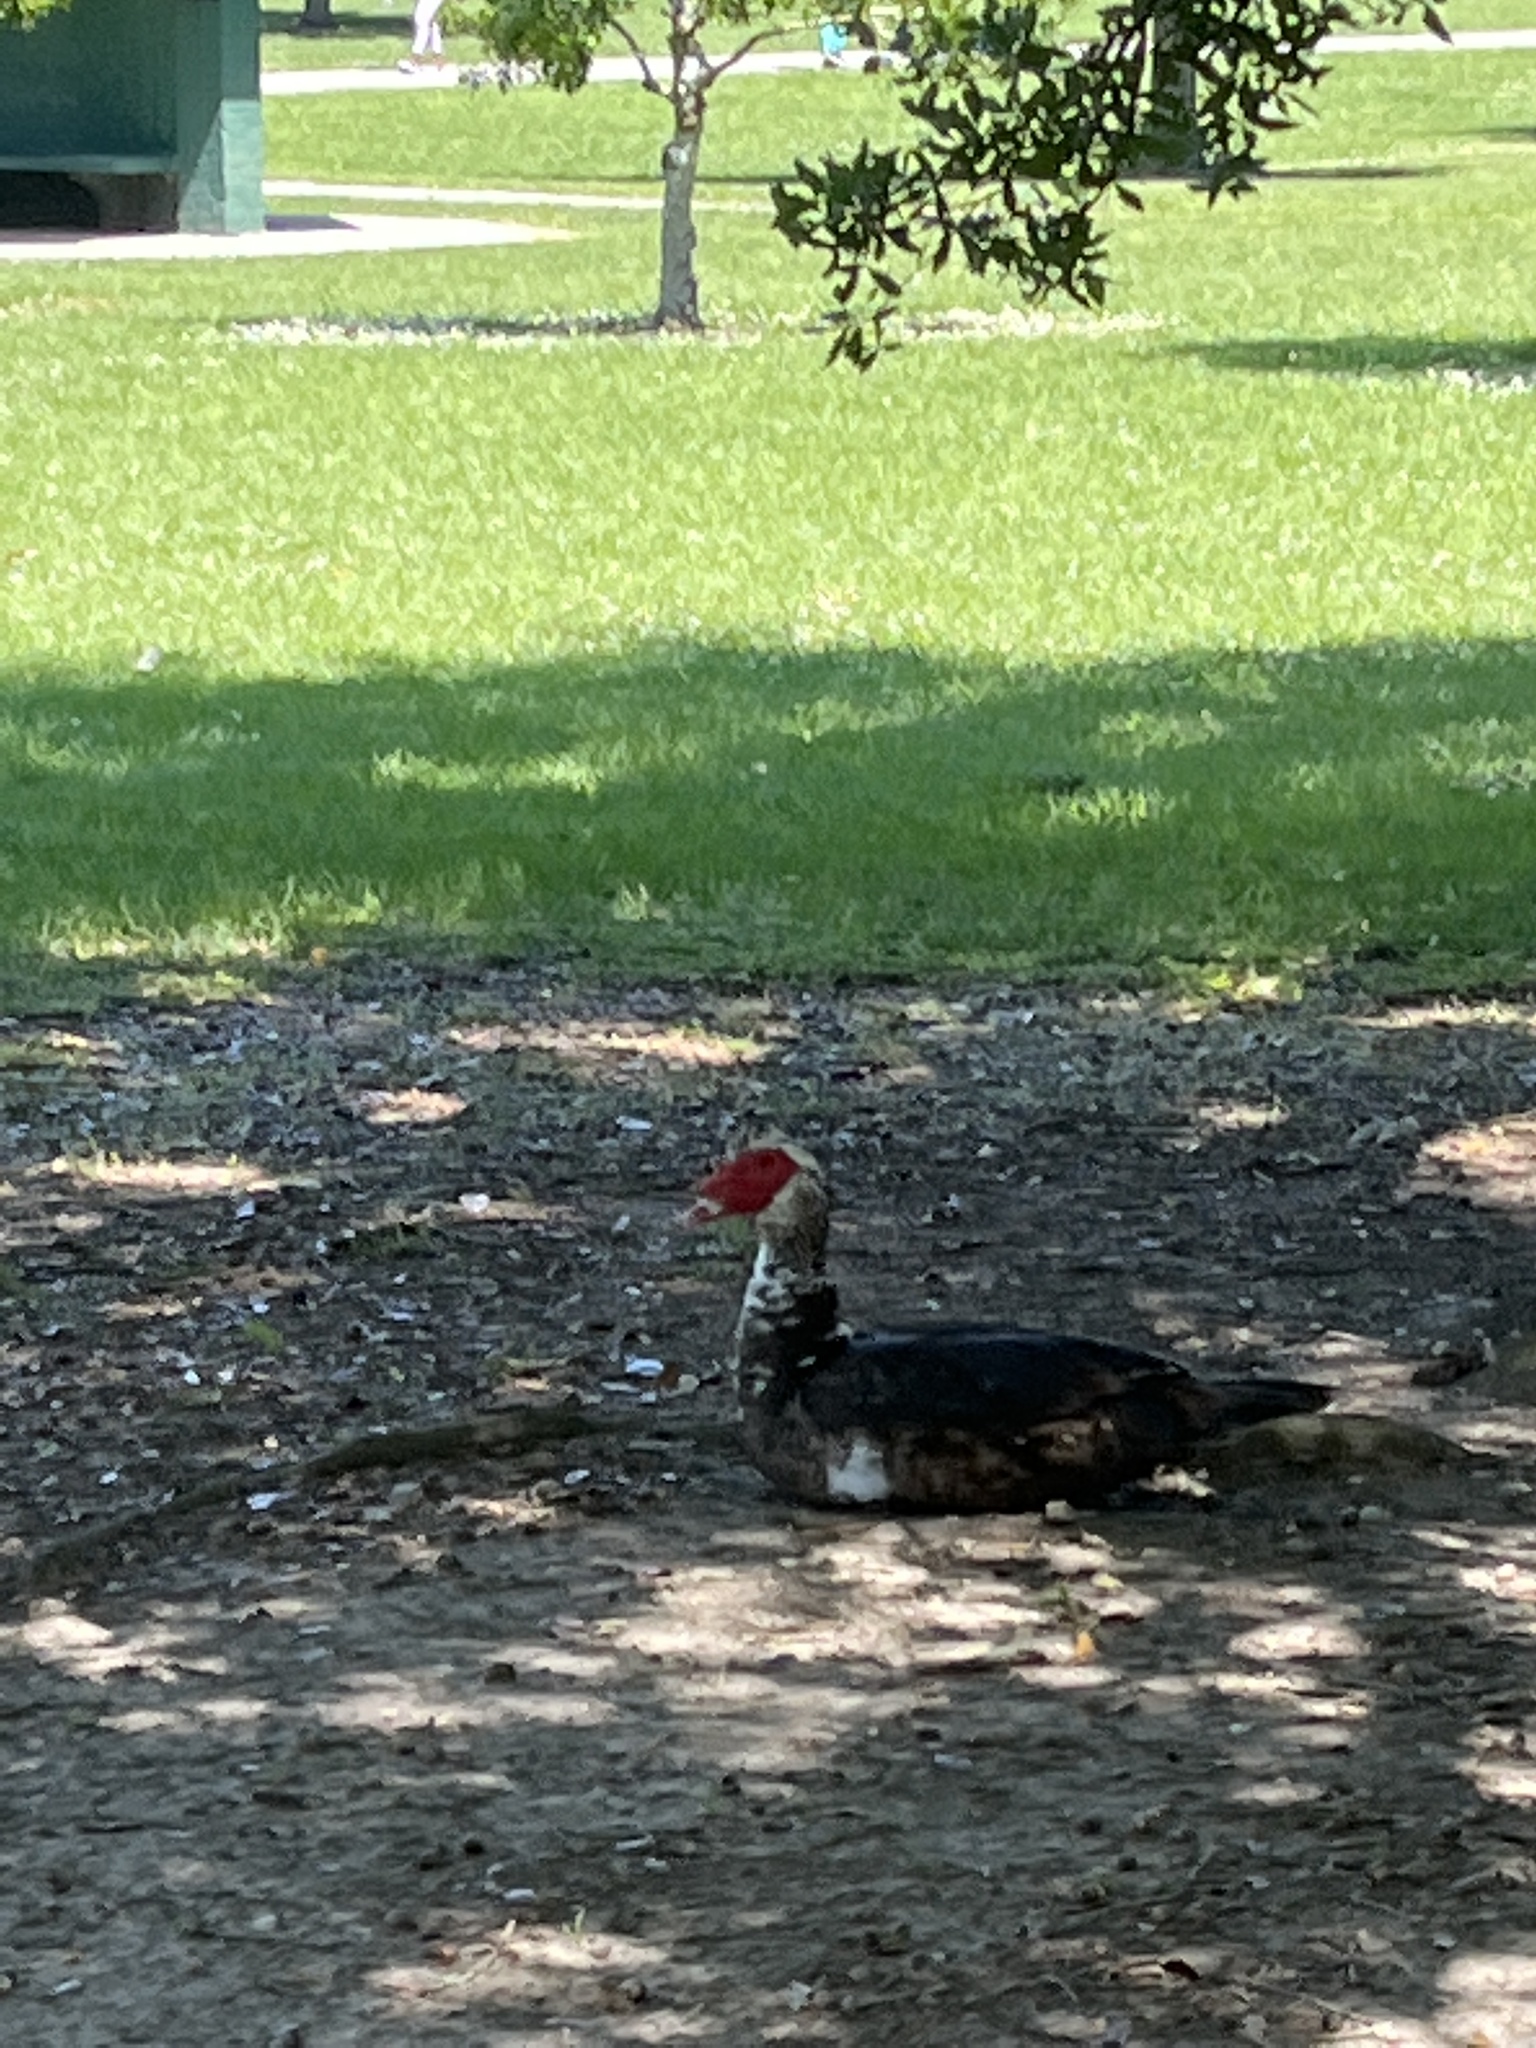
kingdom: Animalia
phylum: Chordata
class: Aves
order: Anseriformes
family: Anatidae
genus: Cairina
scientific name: Cairina moschata
